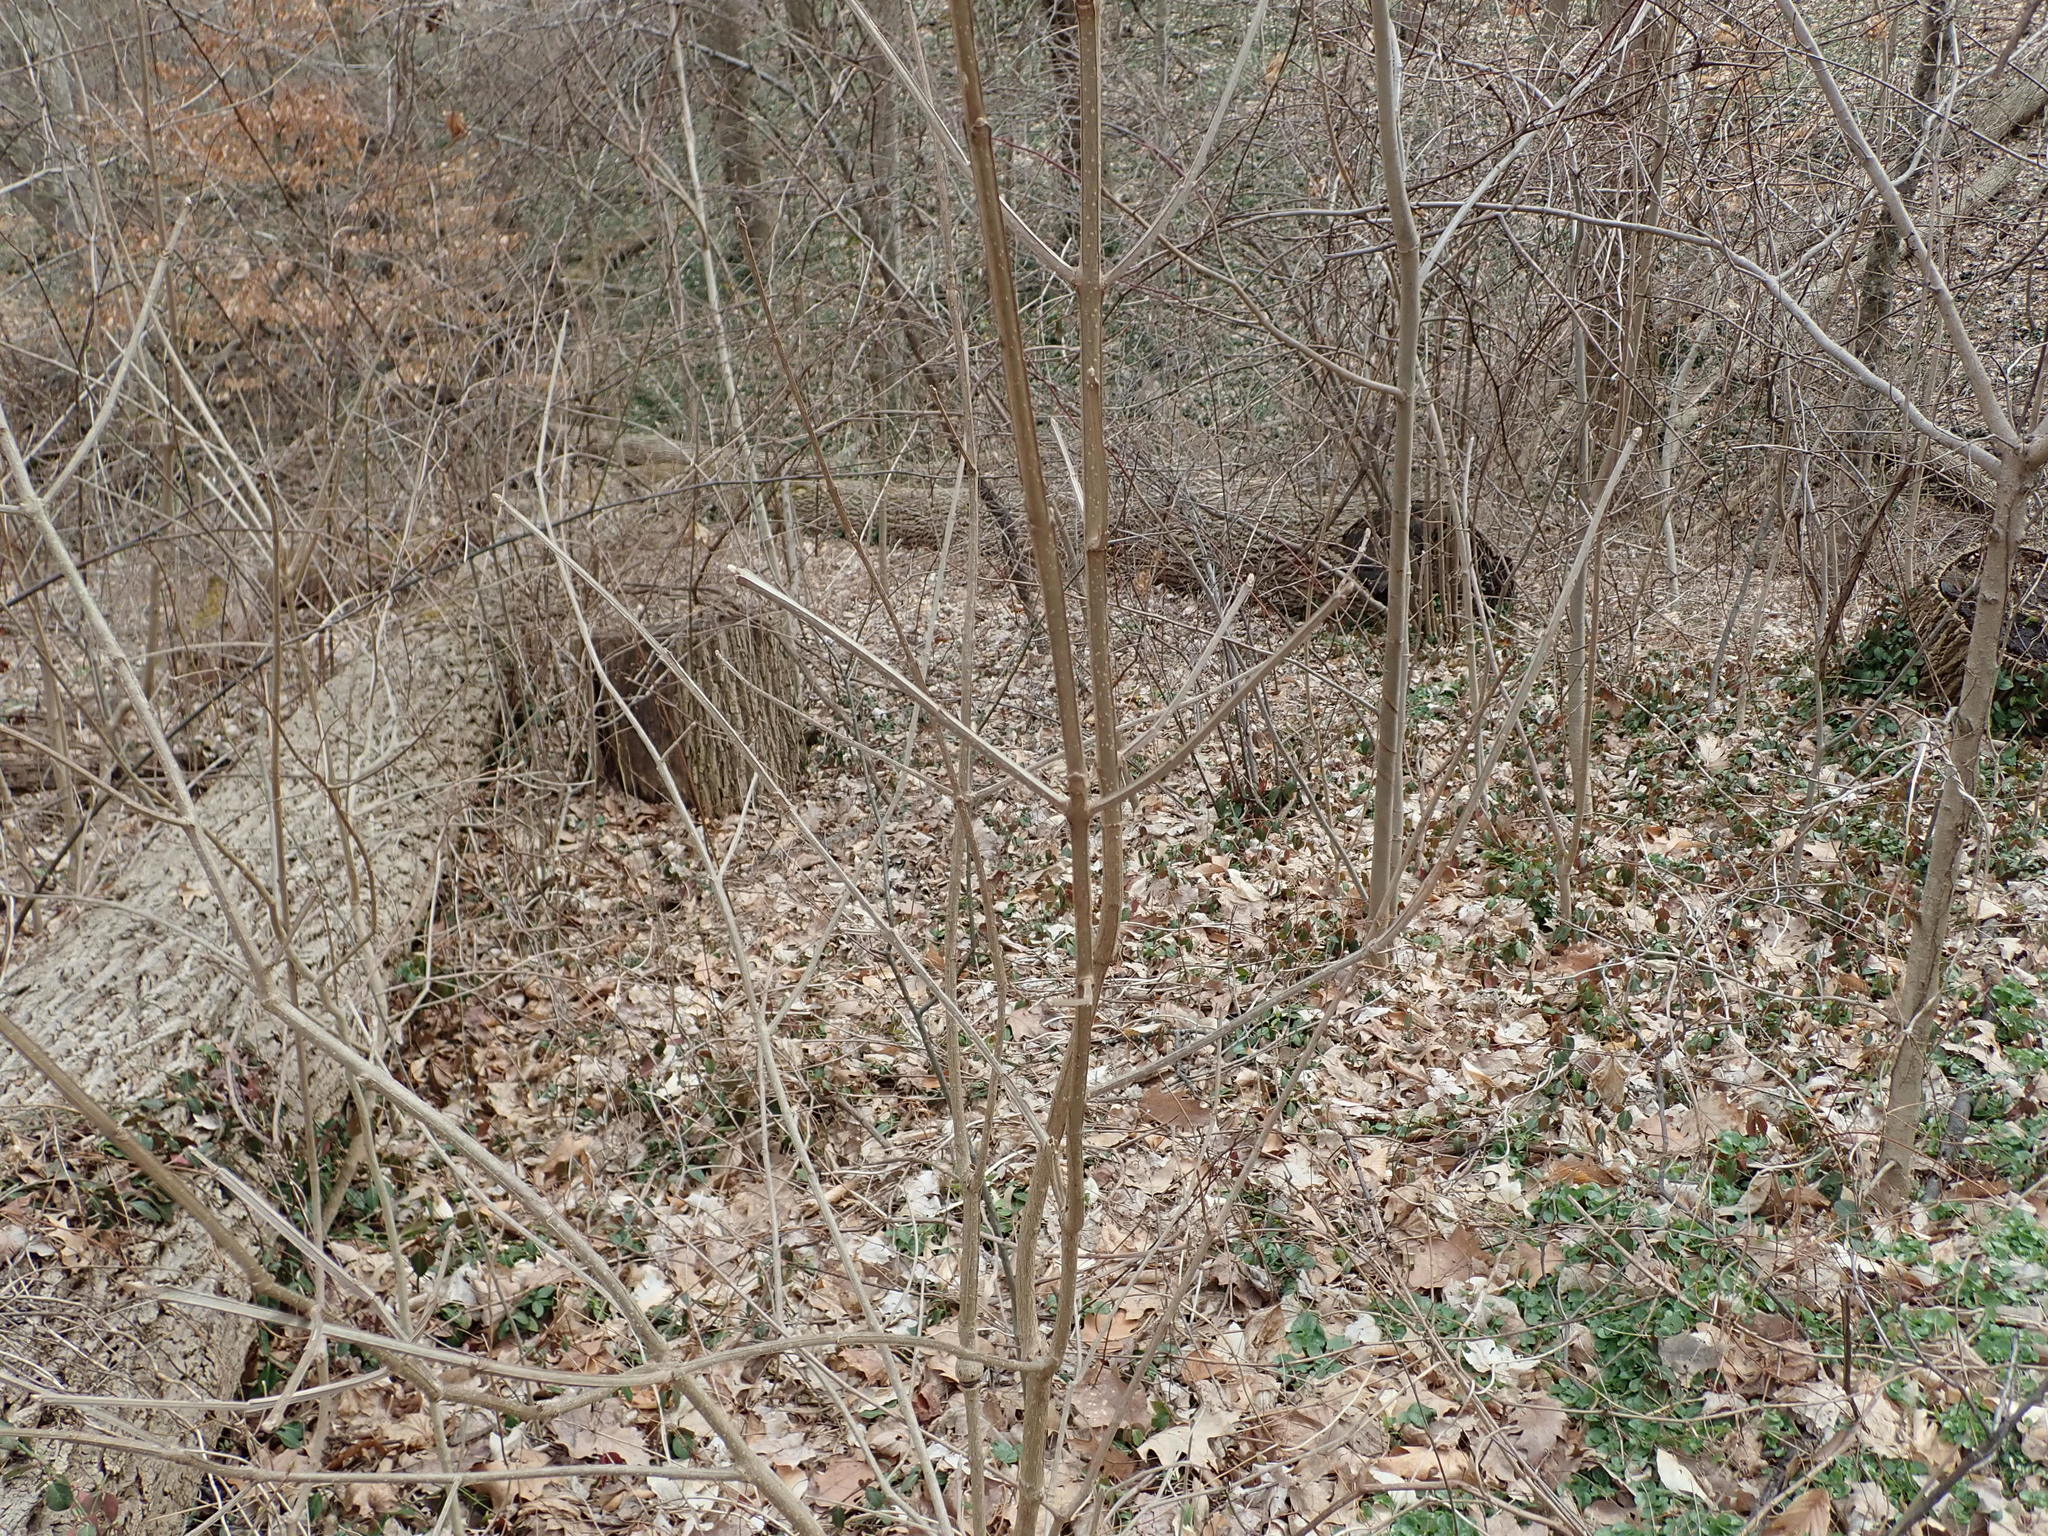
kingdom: Plantae
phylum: Tracheophyta
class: Magnoliopsida
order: Lamiales
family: Oleaceae
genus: Fraxinus
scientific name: Fraxinus quadrangulata
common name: Blue ash
